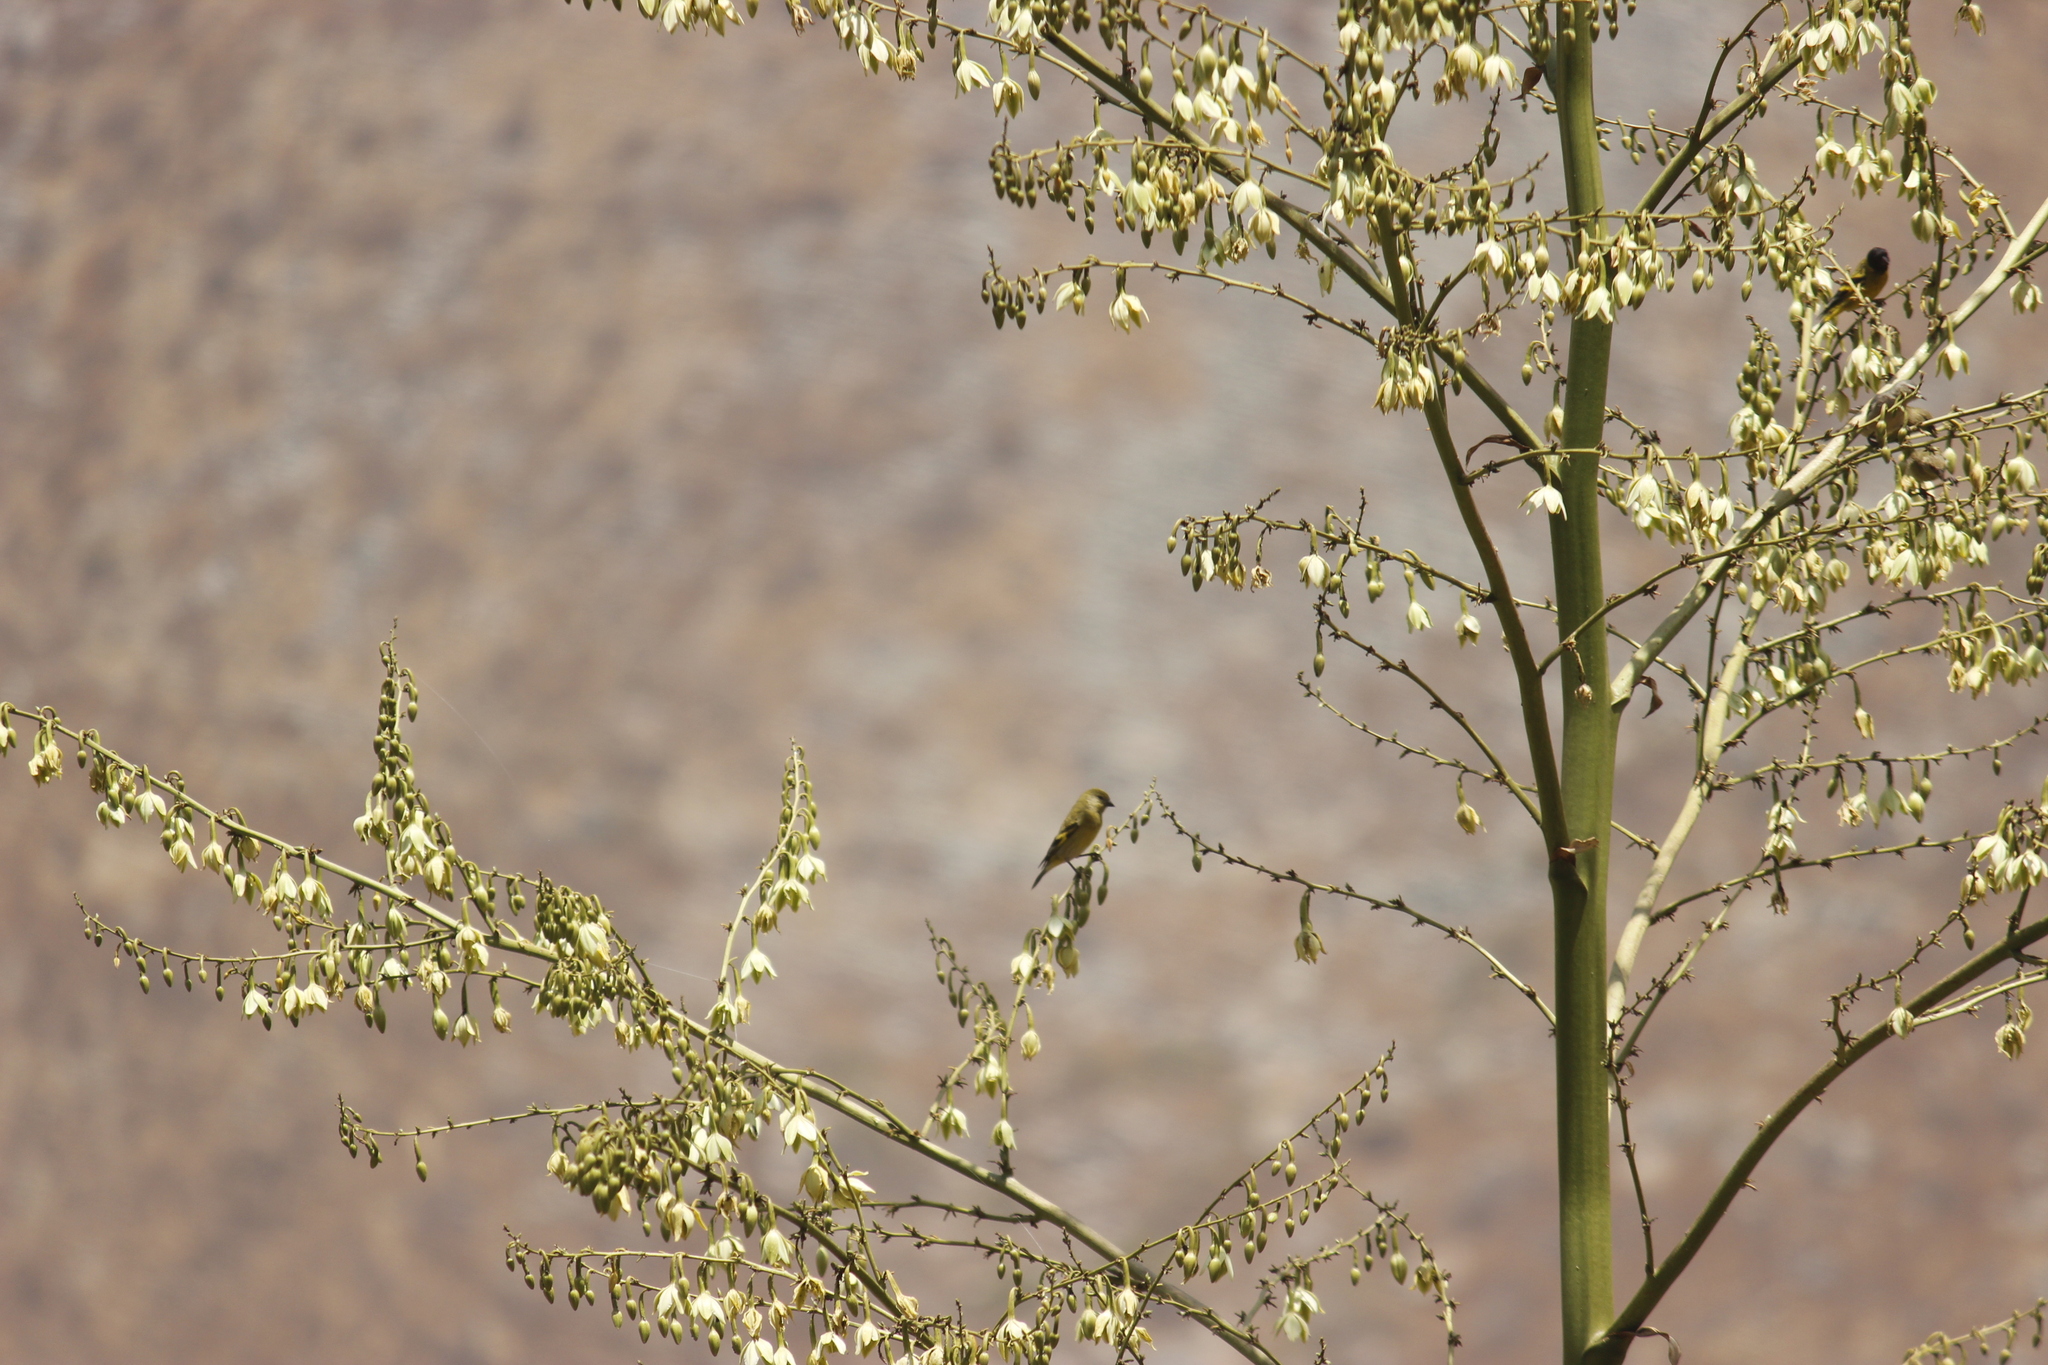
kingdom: Animalia
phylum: Chordata
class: Aves
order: Passeriformes
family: Fringillidae
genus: Spinus
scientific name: Spinus magellanicus
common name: Hooded siskin
